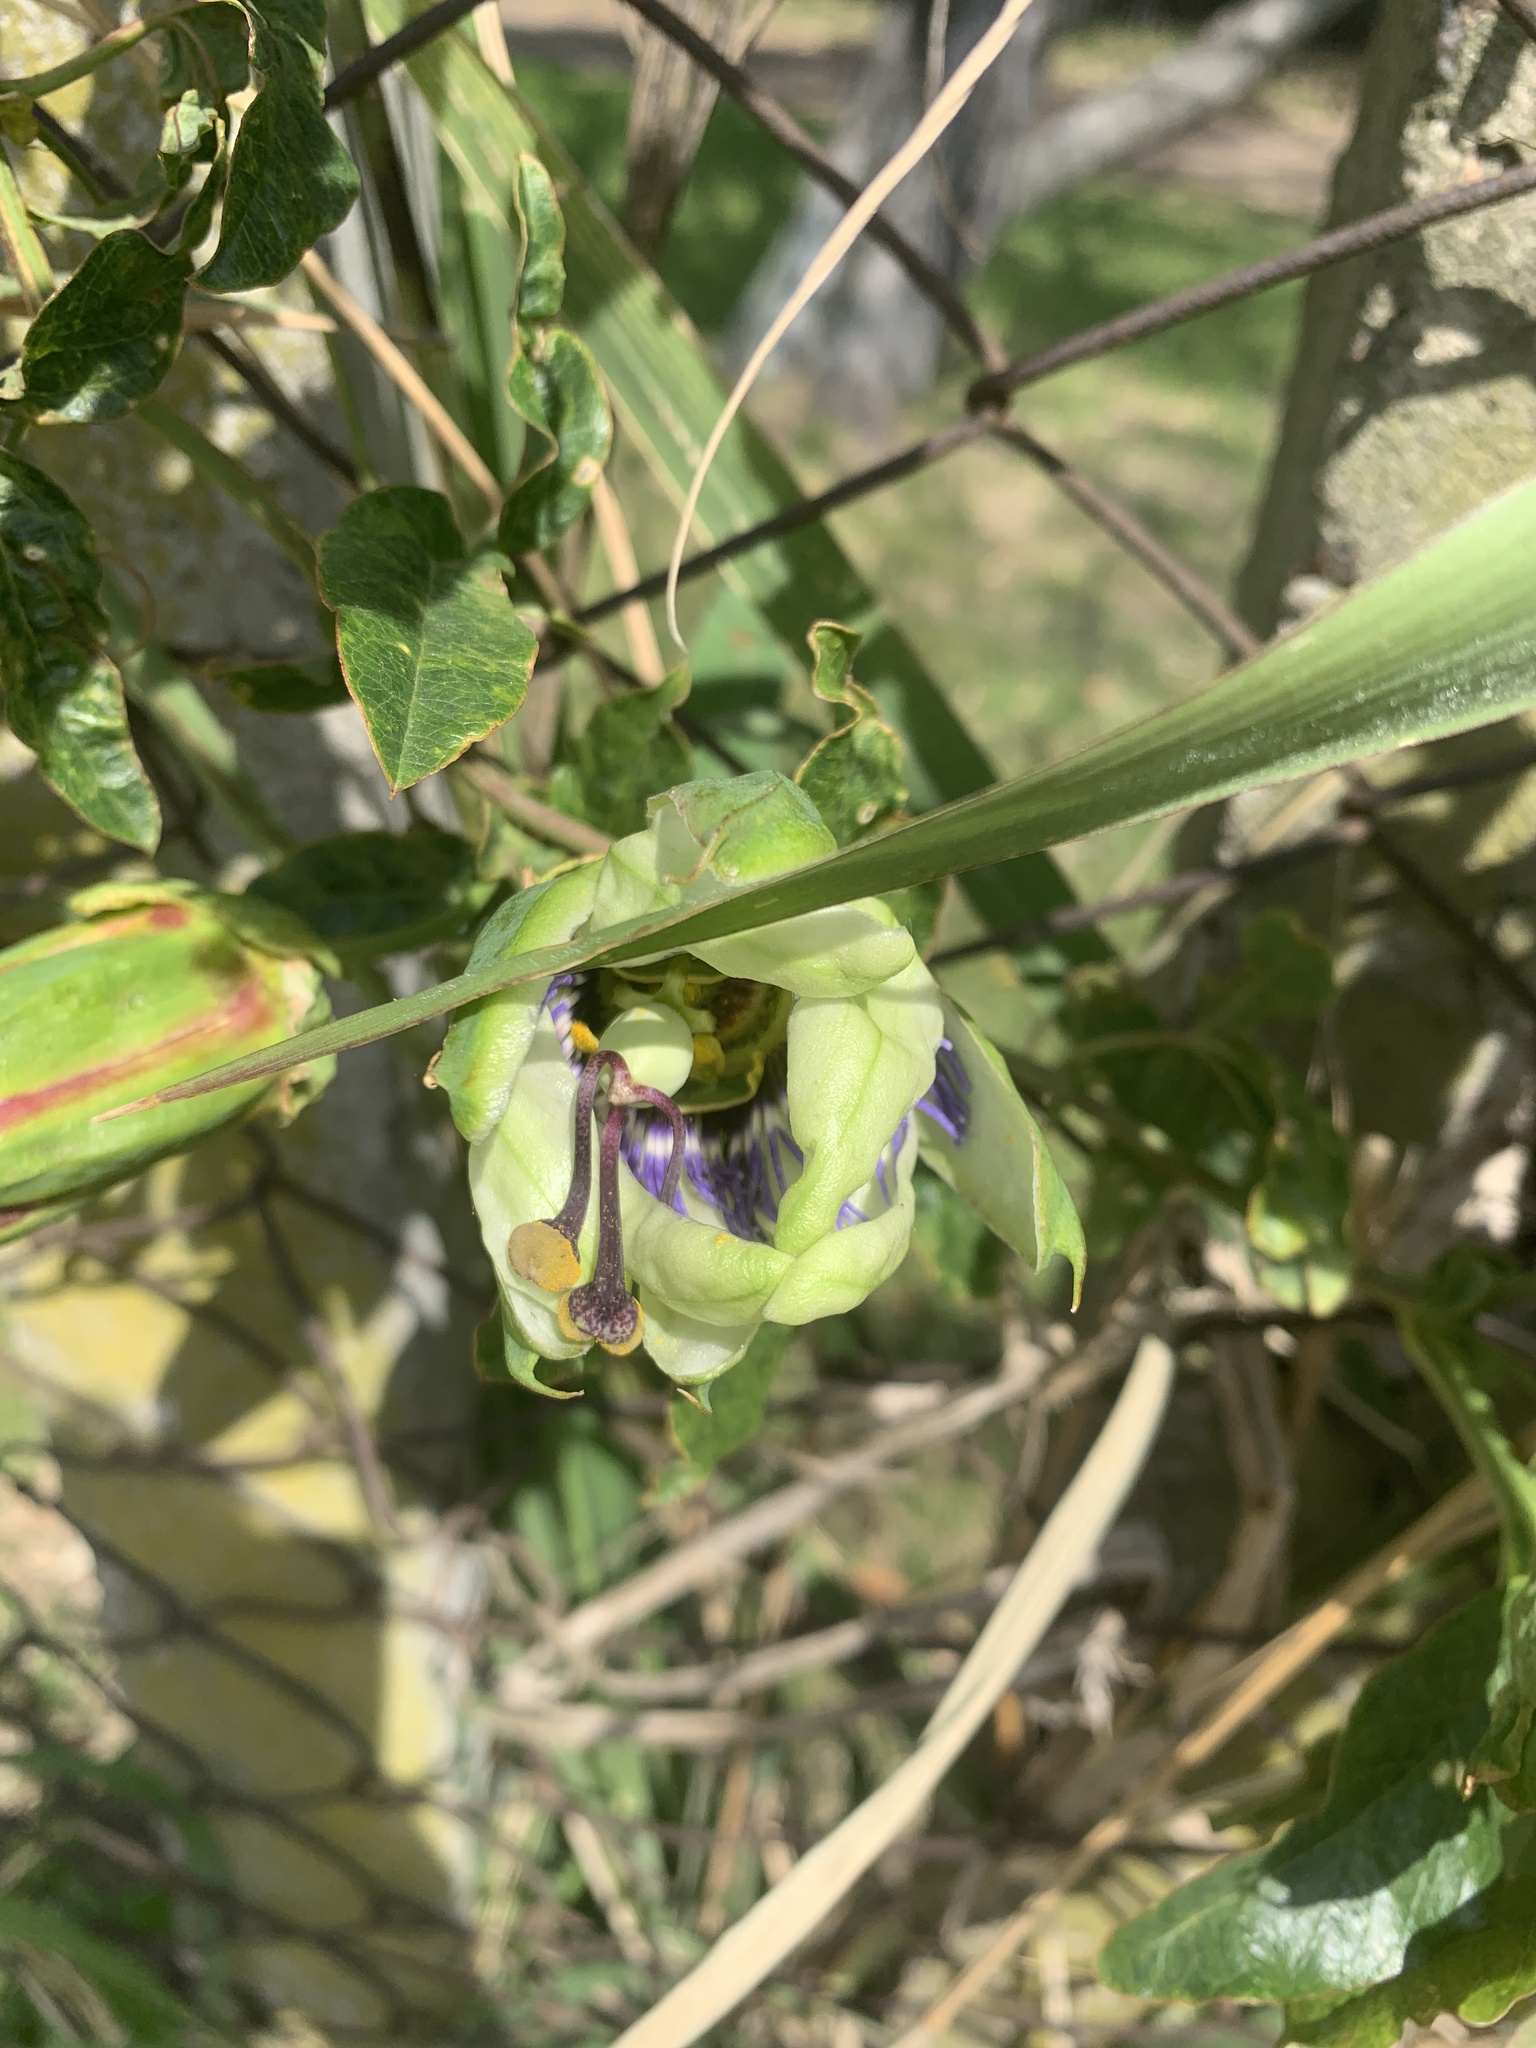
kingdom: Plantae
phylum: Tracheophyta
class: Magnoliopsida
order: Malpighiales
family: Passifloraceae
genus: Passiflora
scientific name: Passiflora caerulea
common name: Blue passionflower
